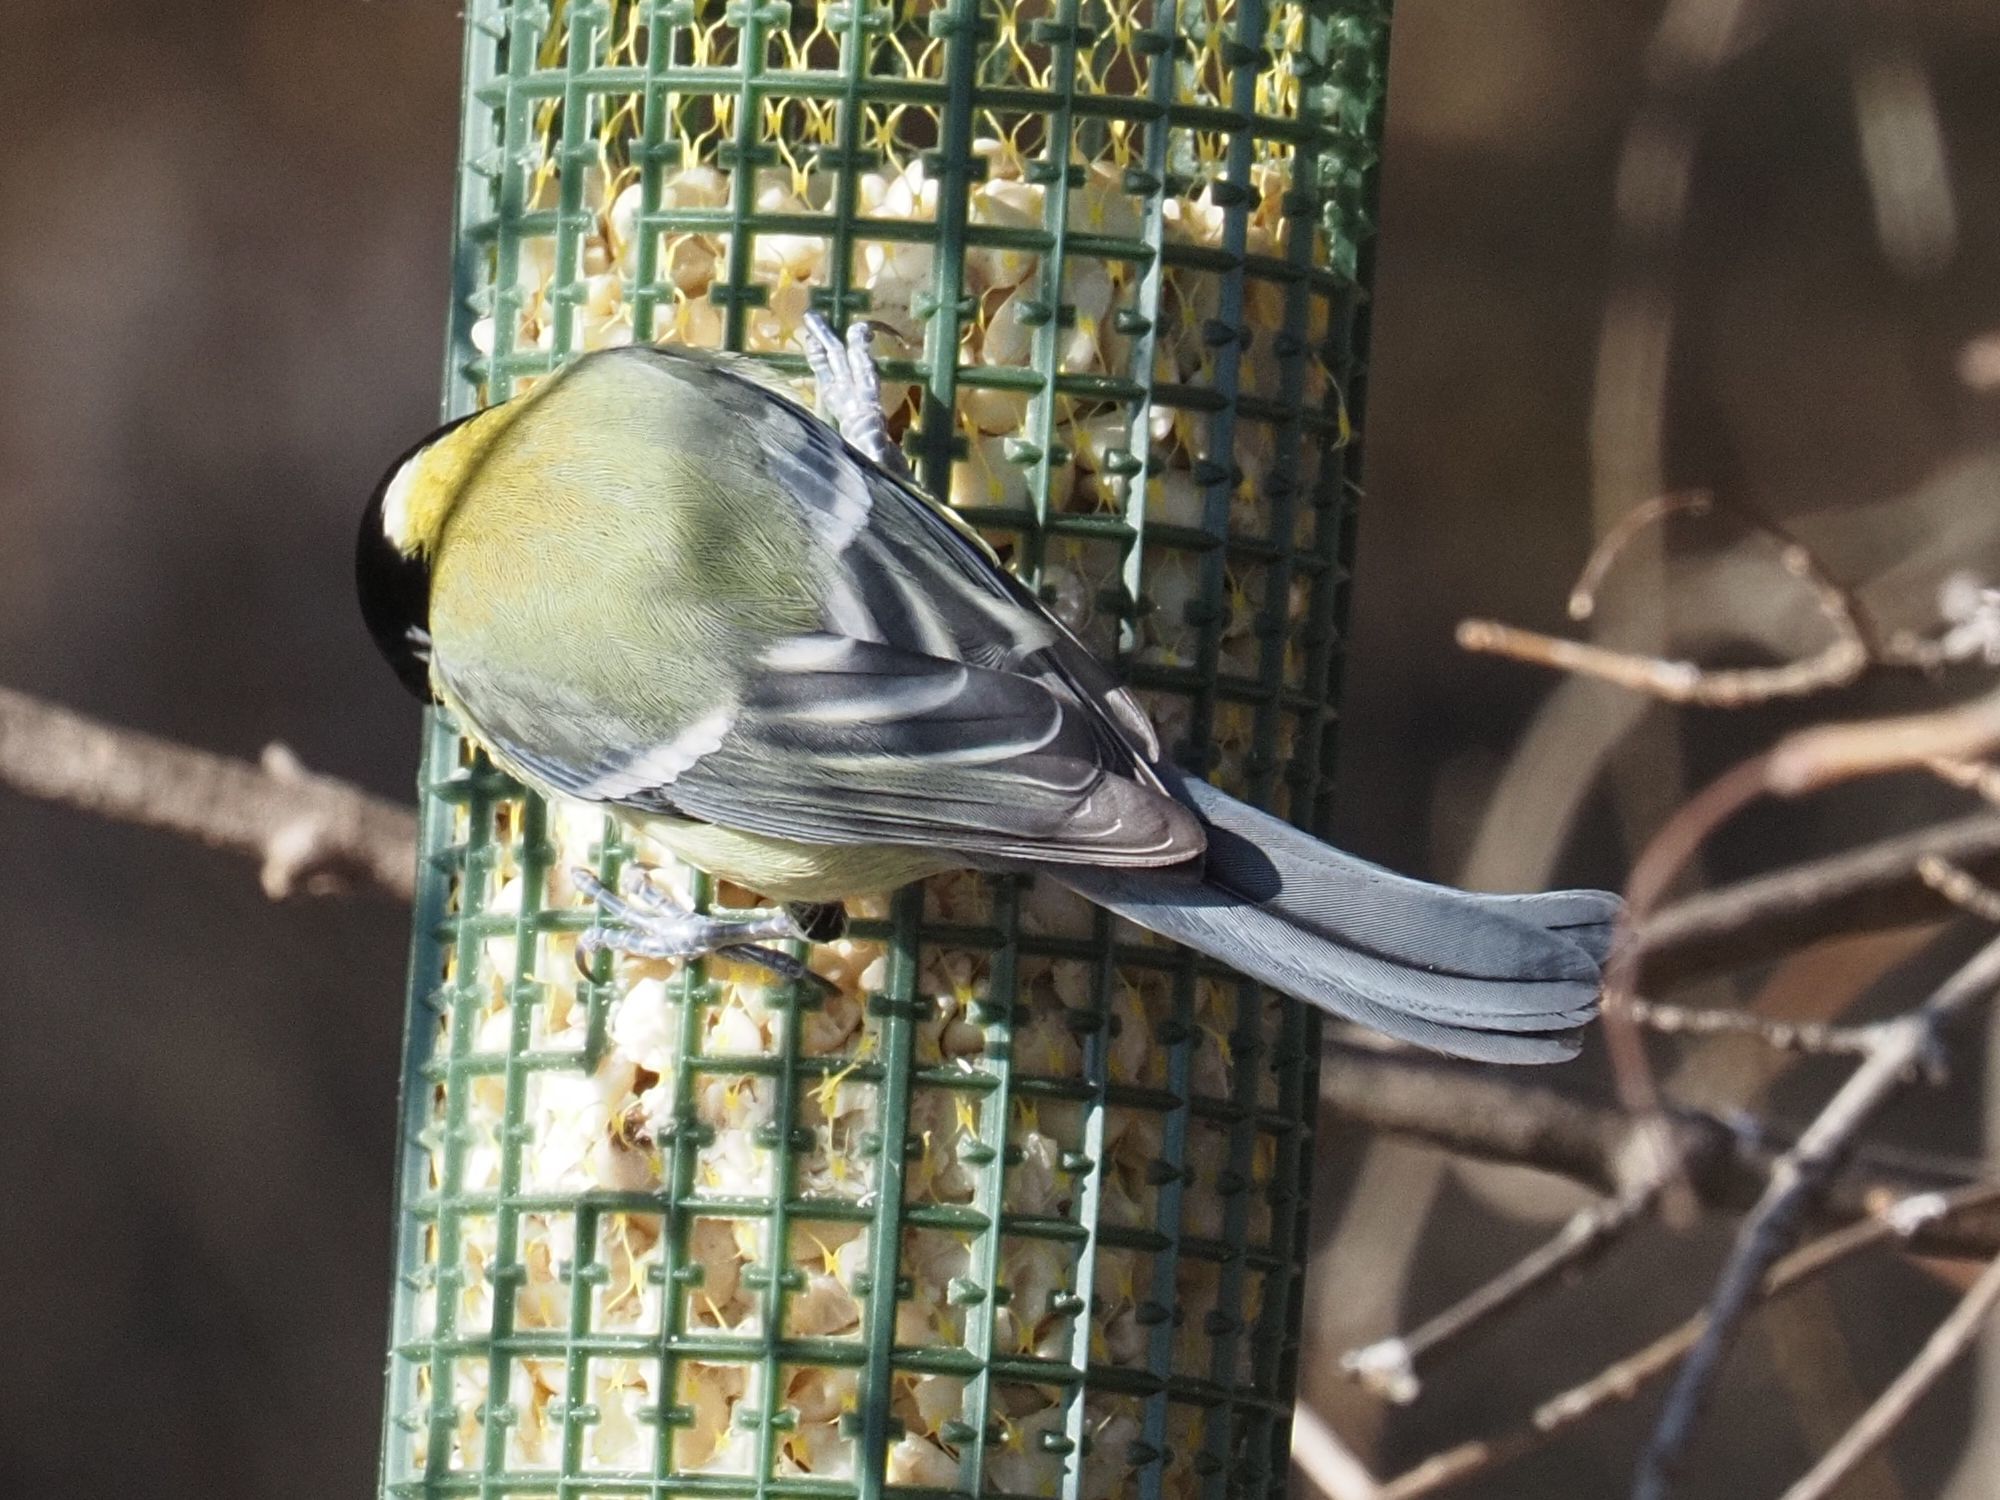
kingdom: Animalia
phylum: Chordata
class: Aves
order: Passeriformes
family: Paridae
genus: Parus
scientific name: Parus major
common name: Great tit
